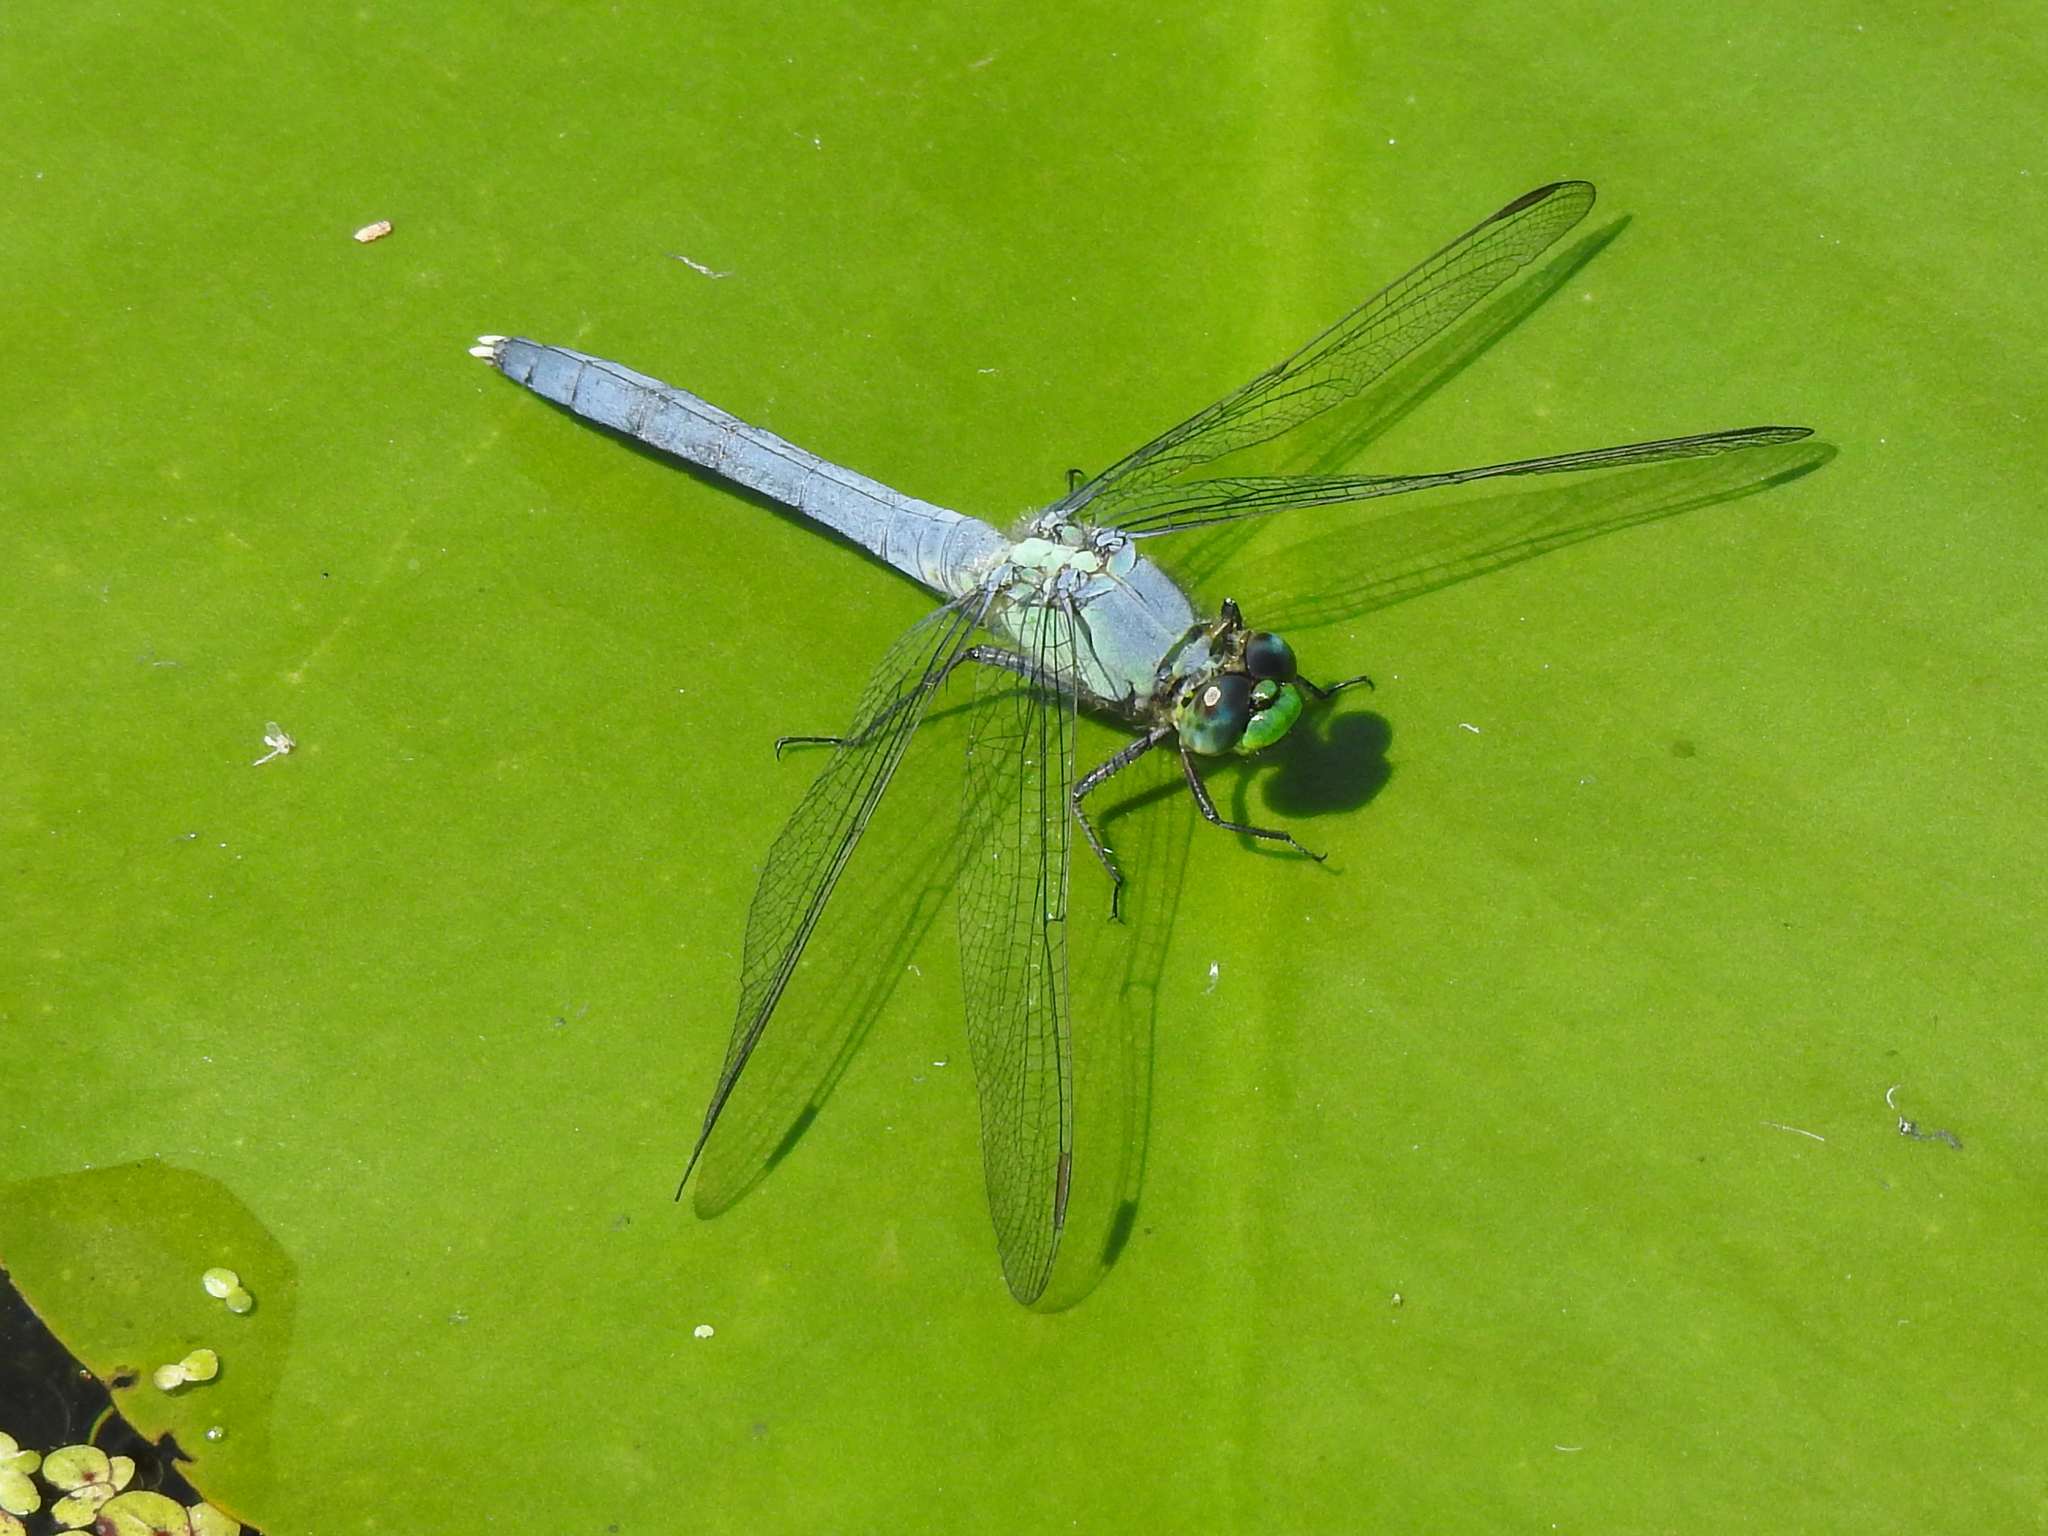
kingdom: Animalia
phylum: Arthropoda
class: Insecta
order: Odonata
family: Libellulidae
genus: Erythemis
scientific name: Erythemis simplicicollis
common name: Eastern pondhawk
